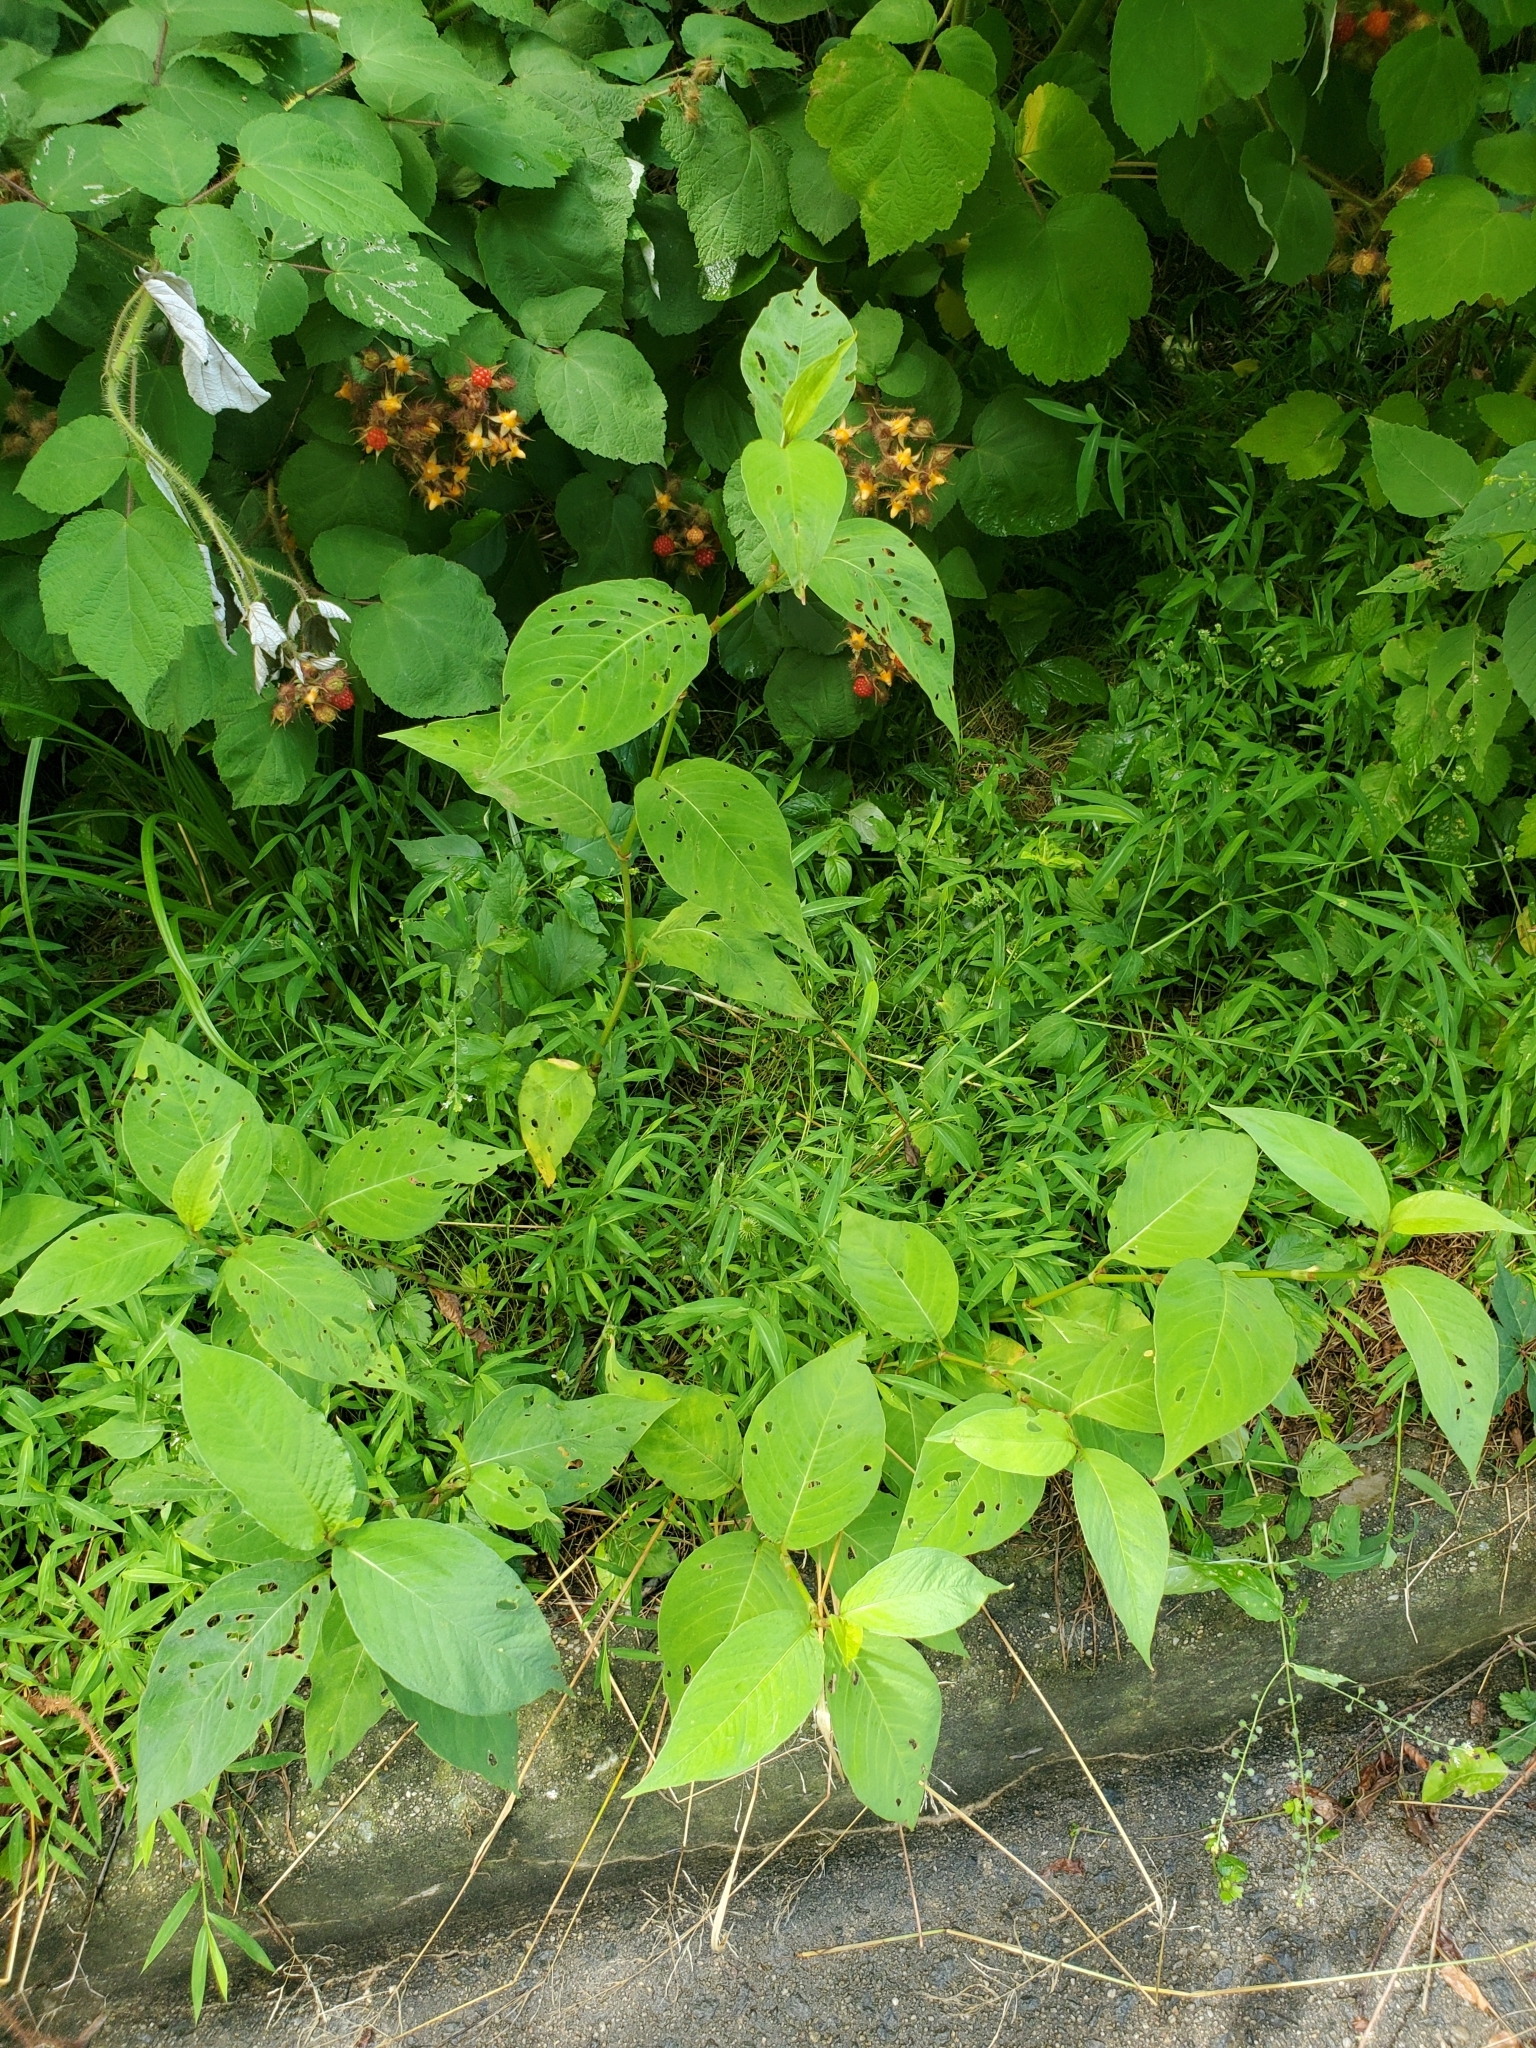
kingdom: Plantae
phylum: Tracheophyta
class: Magnoliopsida
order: Caryophyllales
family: Polygonaceae
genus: Persicaria
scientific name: Persicaria virginiana
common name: Jumpseed
